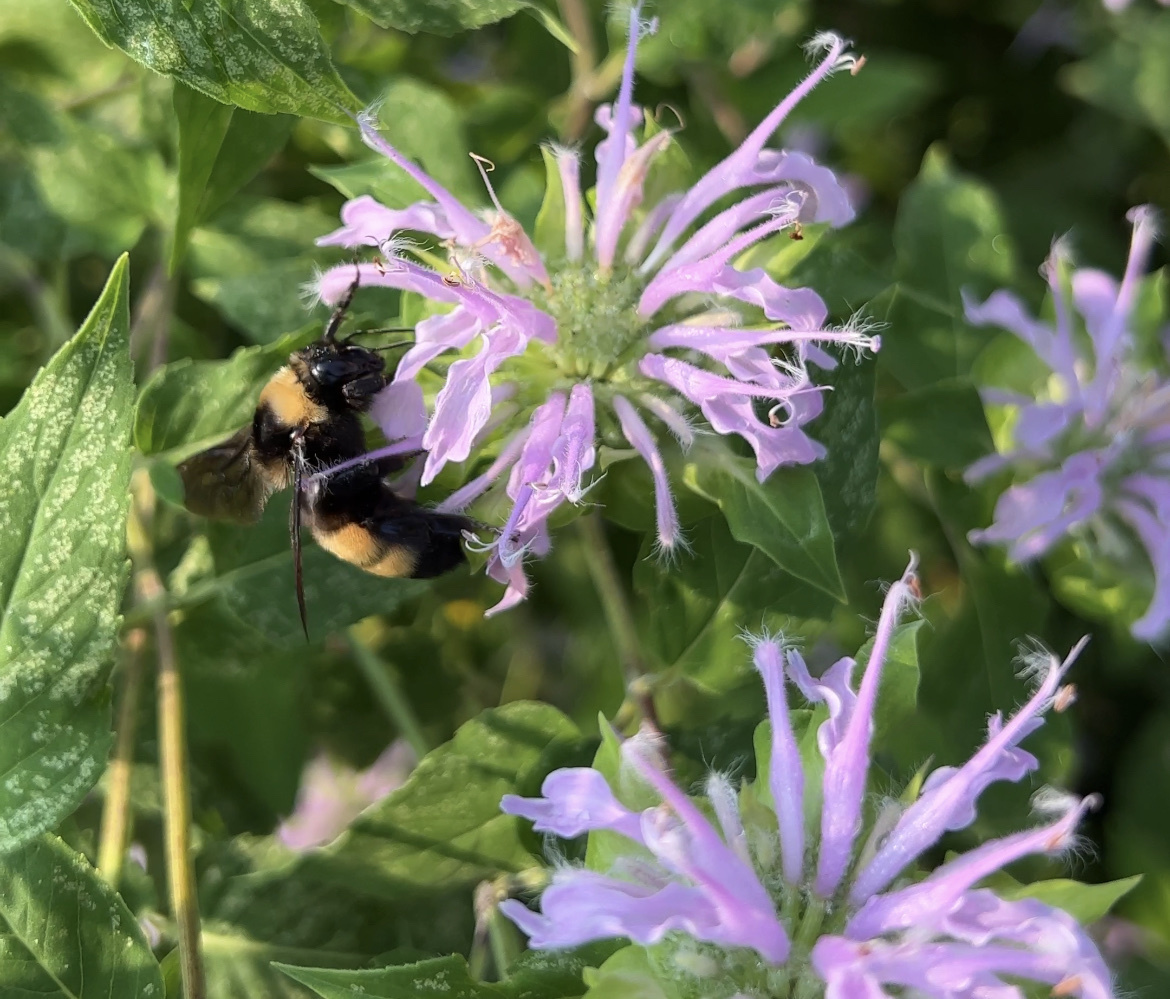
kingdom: Animalia
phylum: Arthropoda
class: Insecta
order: Hymenoptera
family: Apidae
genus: Bombus
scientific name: Bombus auricomus
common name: Black and gold bumble bee
